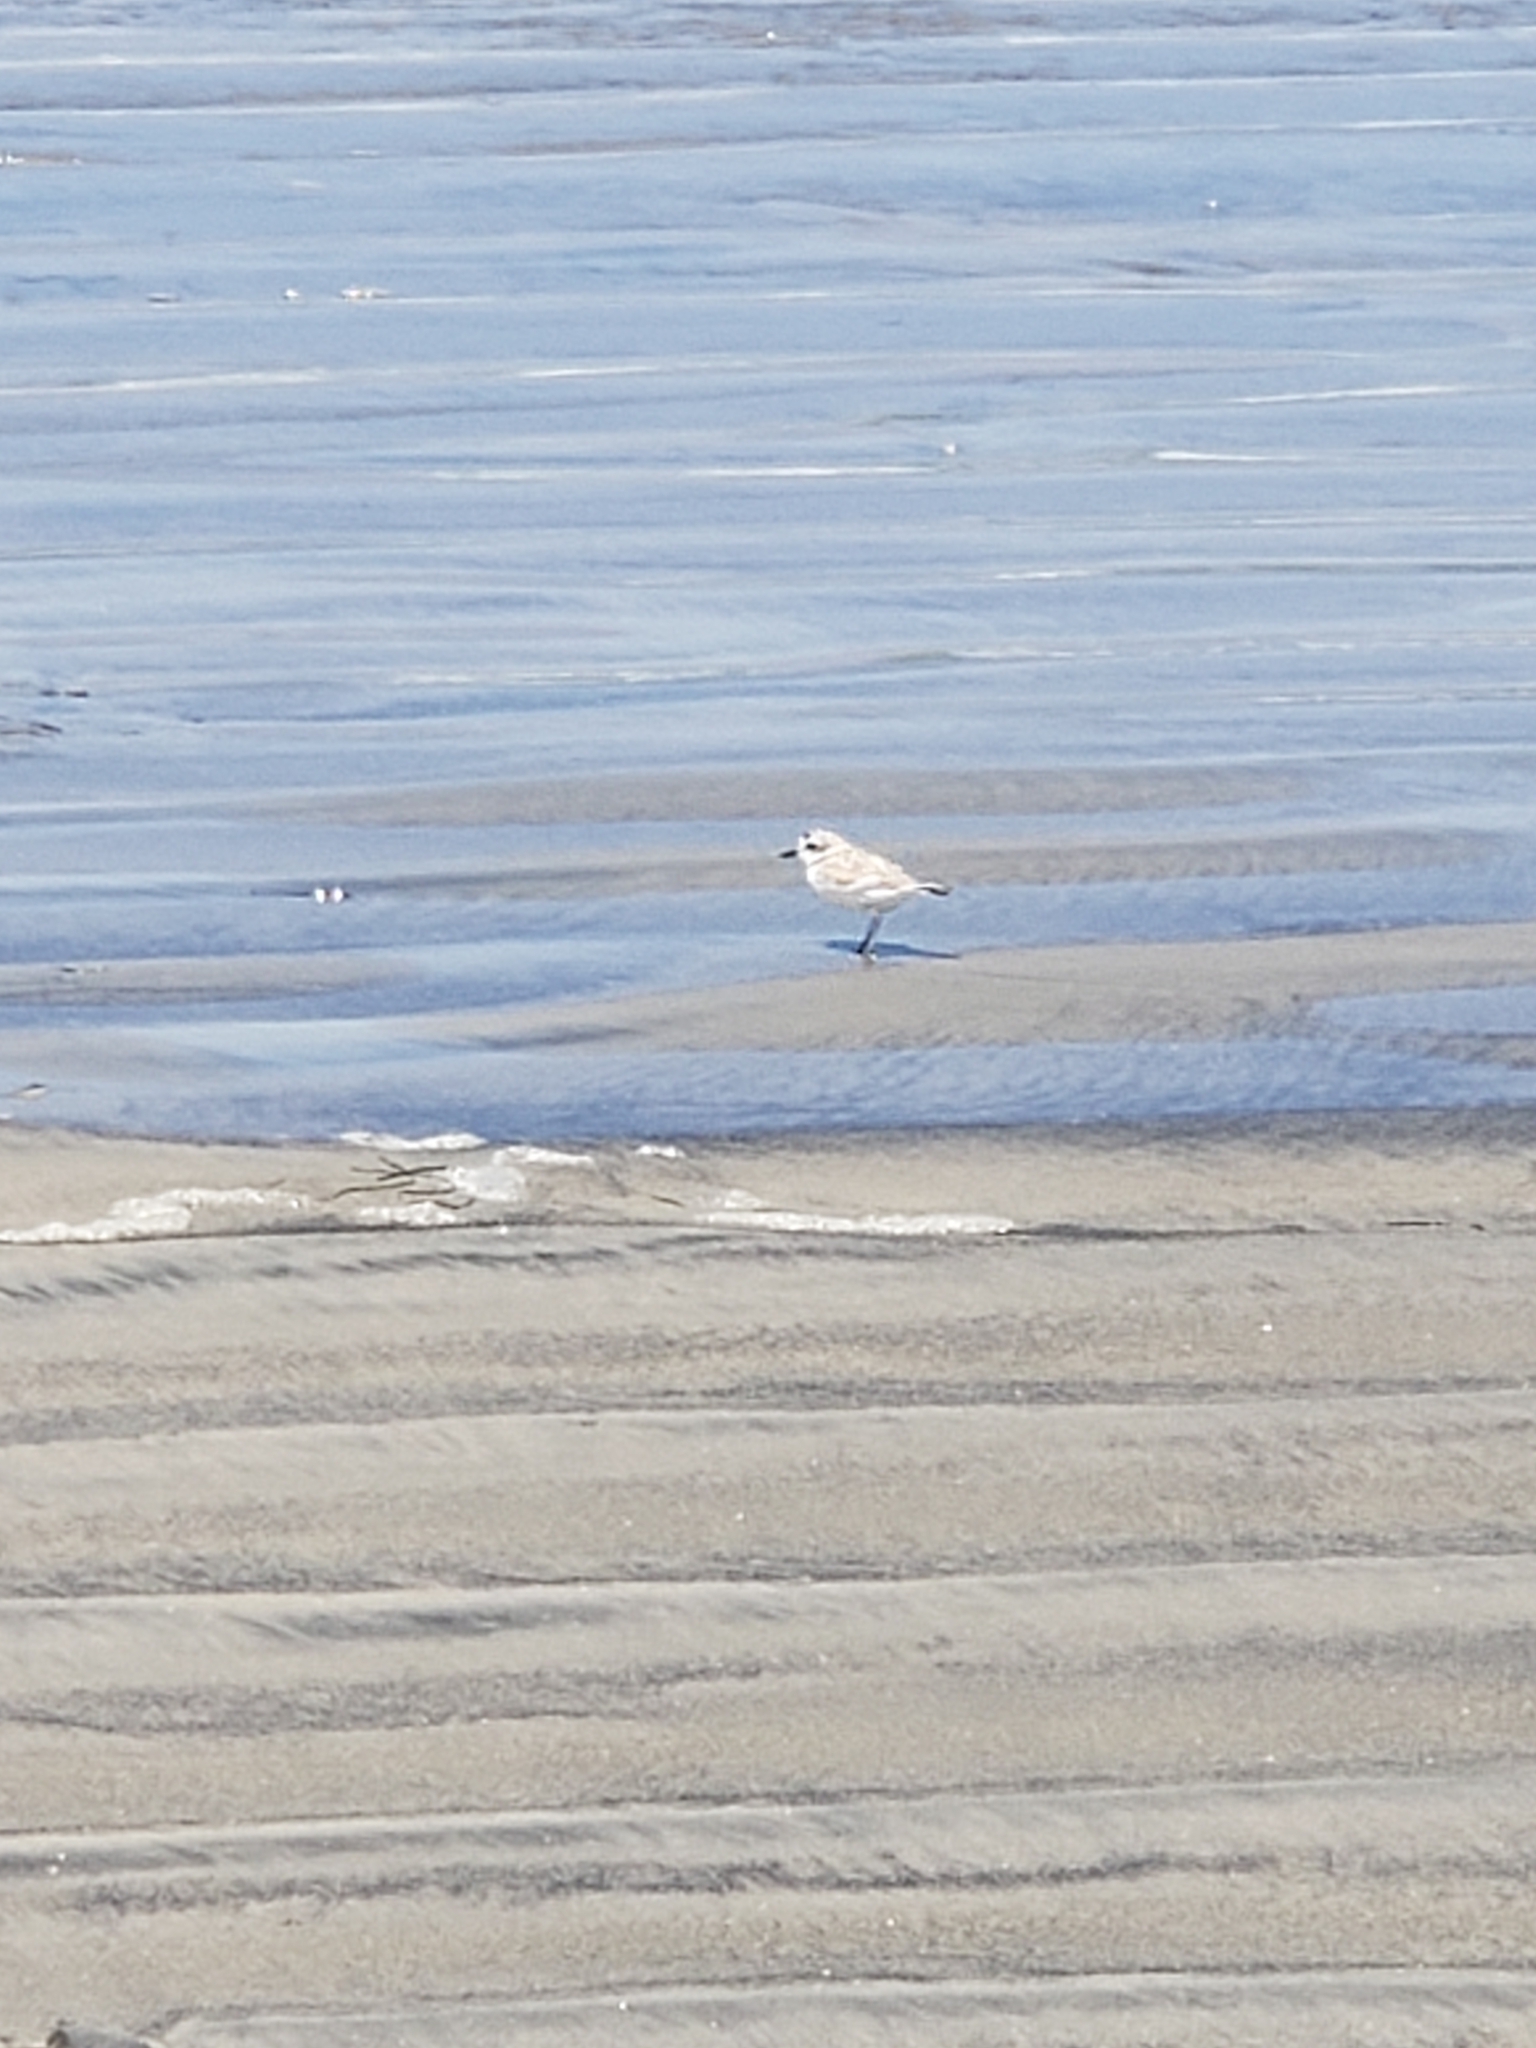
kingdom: Animalia
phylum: Chordata
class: Aves
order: Charadriiformes
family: Charadriidae
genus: Anarhynchus
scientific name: Anarhynchus
